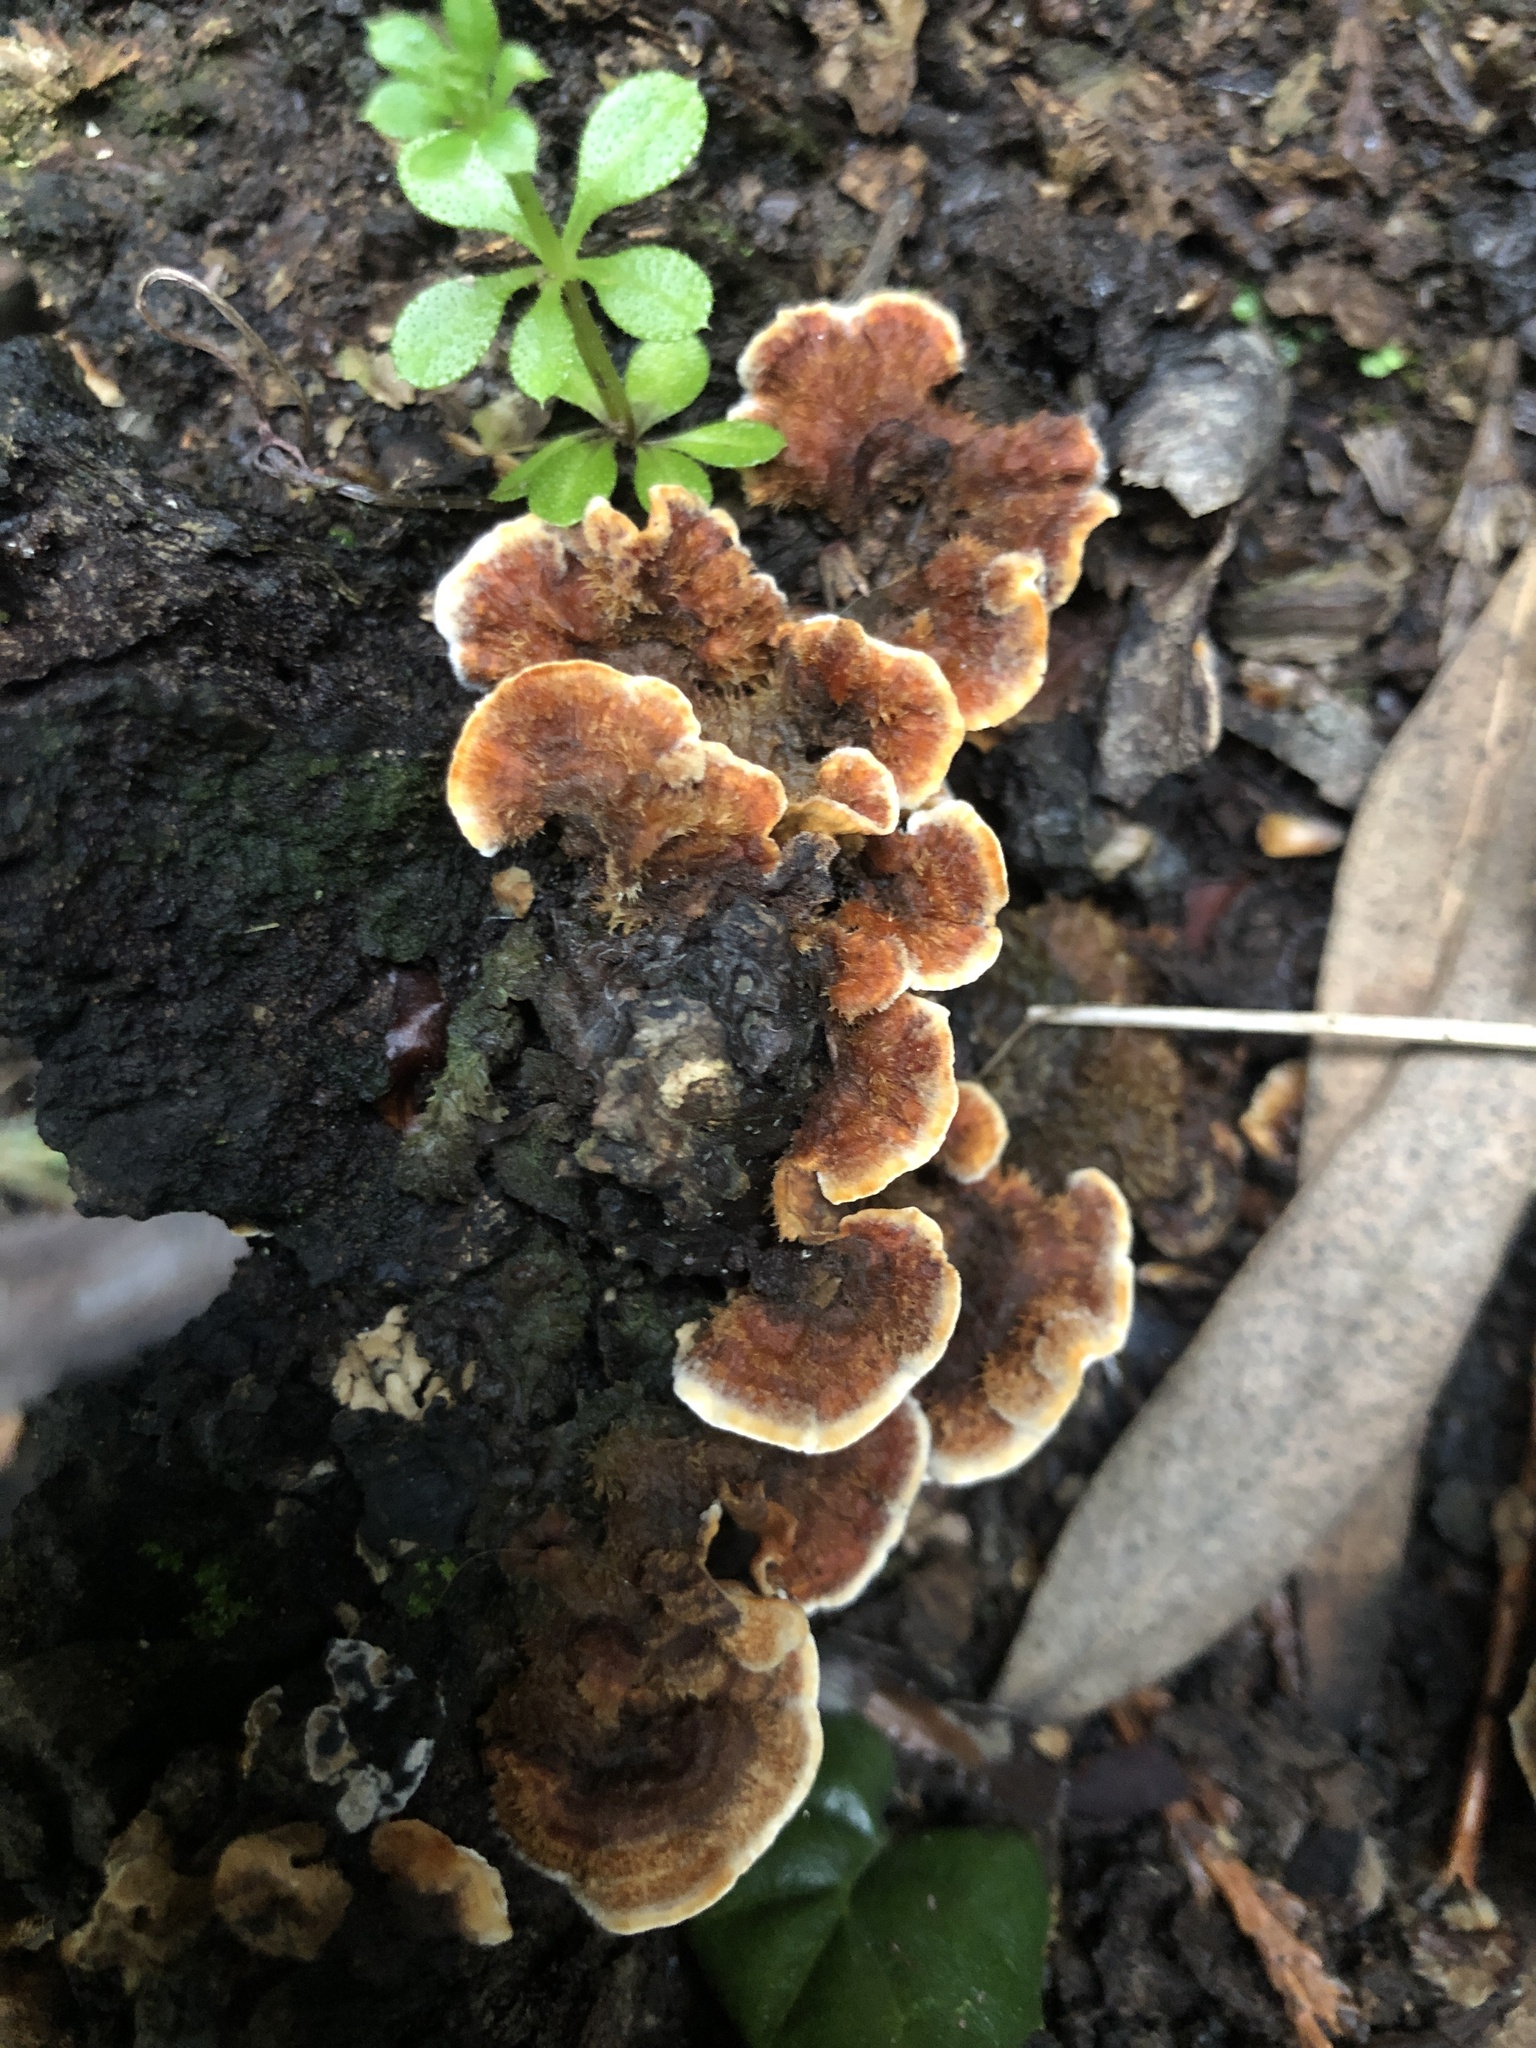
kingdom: Fungi
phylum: Basidiomycota
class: Agaricomycetes
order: Russulales
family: Stereaceae
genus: Stereum
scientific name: Stereum hirsutum
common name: Hairy curtain crust
